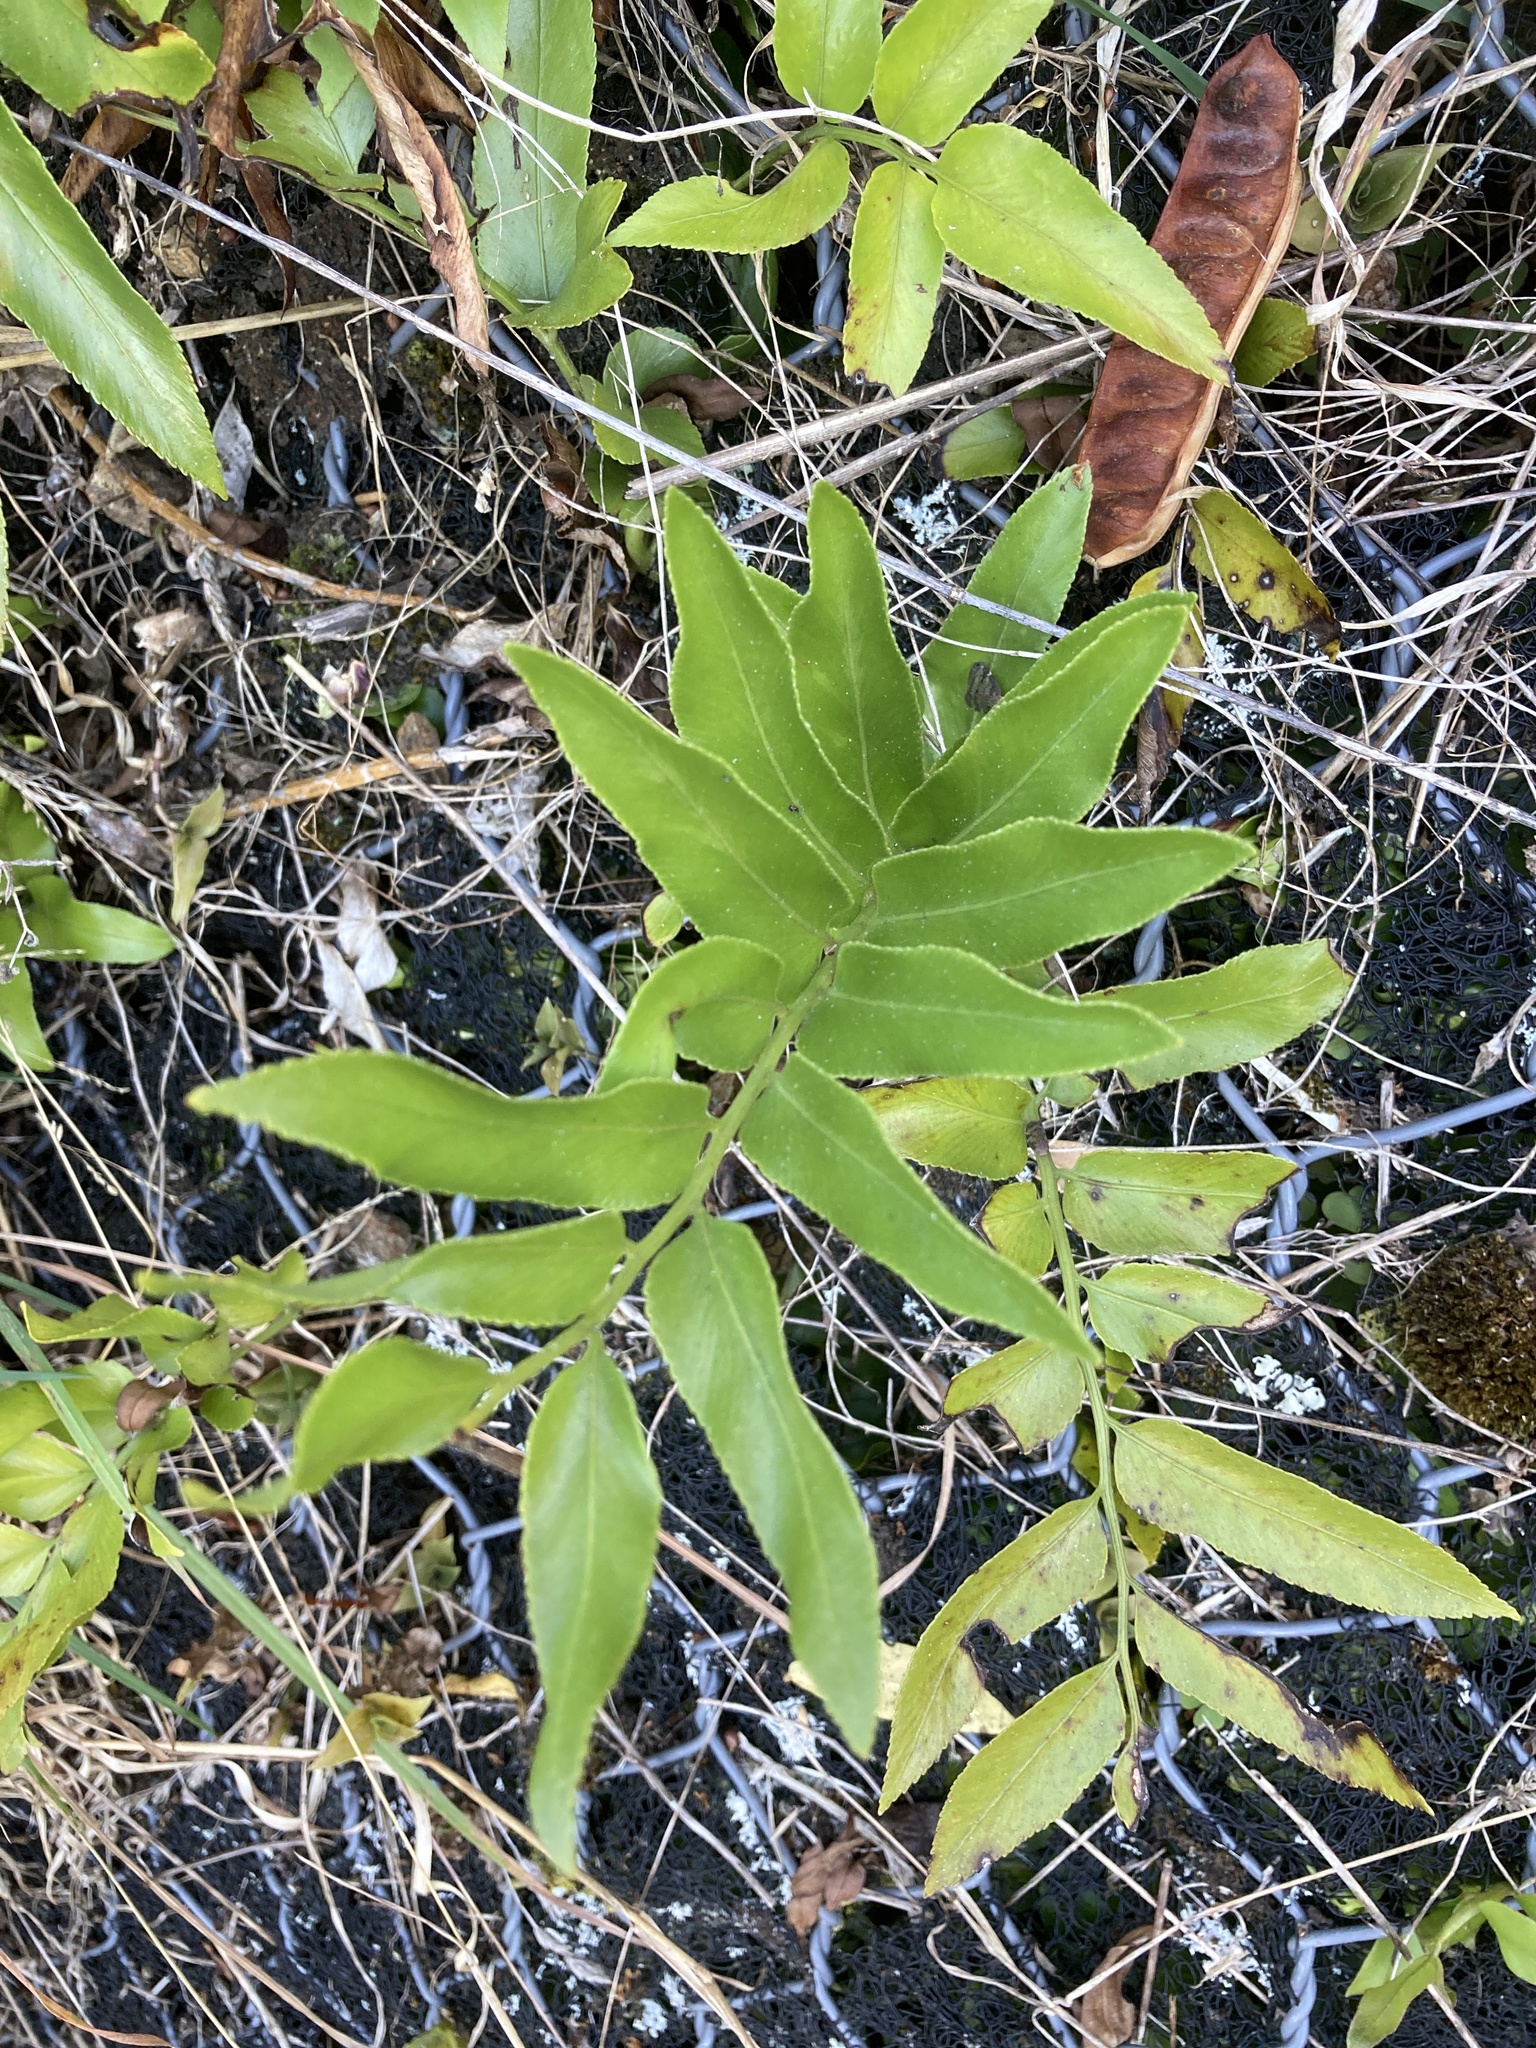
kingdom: Plantae
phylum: Tracheophyta
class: Polypodiopsida
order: Polypodiales
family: Aspleniaceae
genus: Asplenium
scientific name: Asplenium oblongifolium
